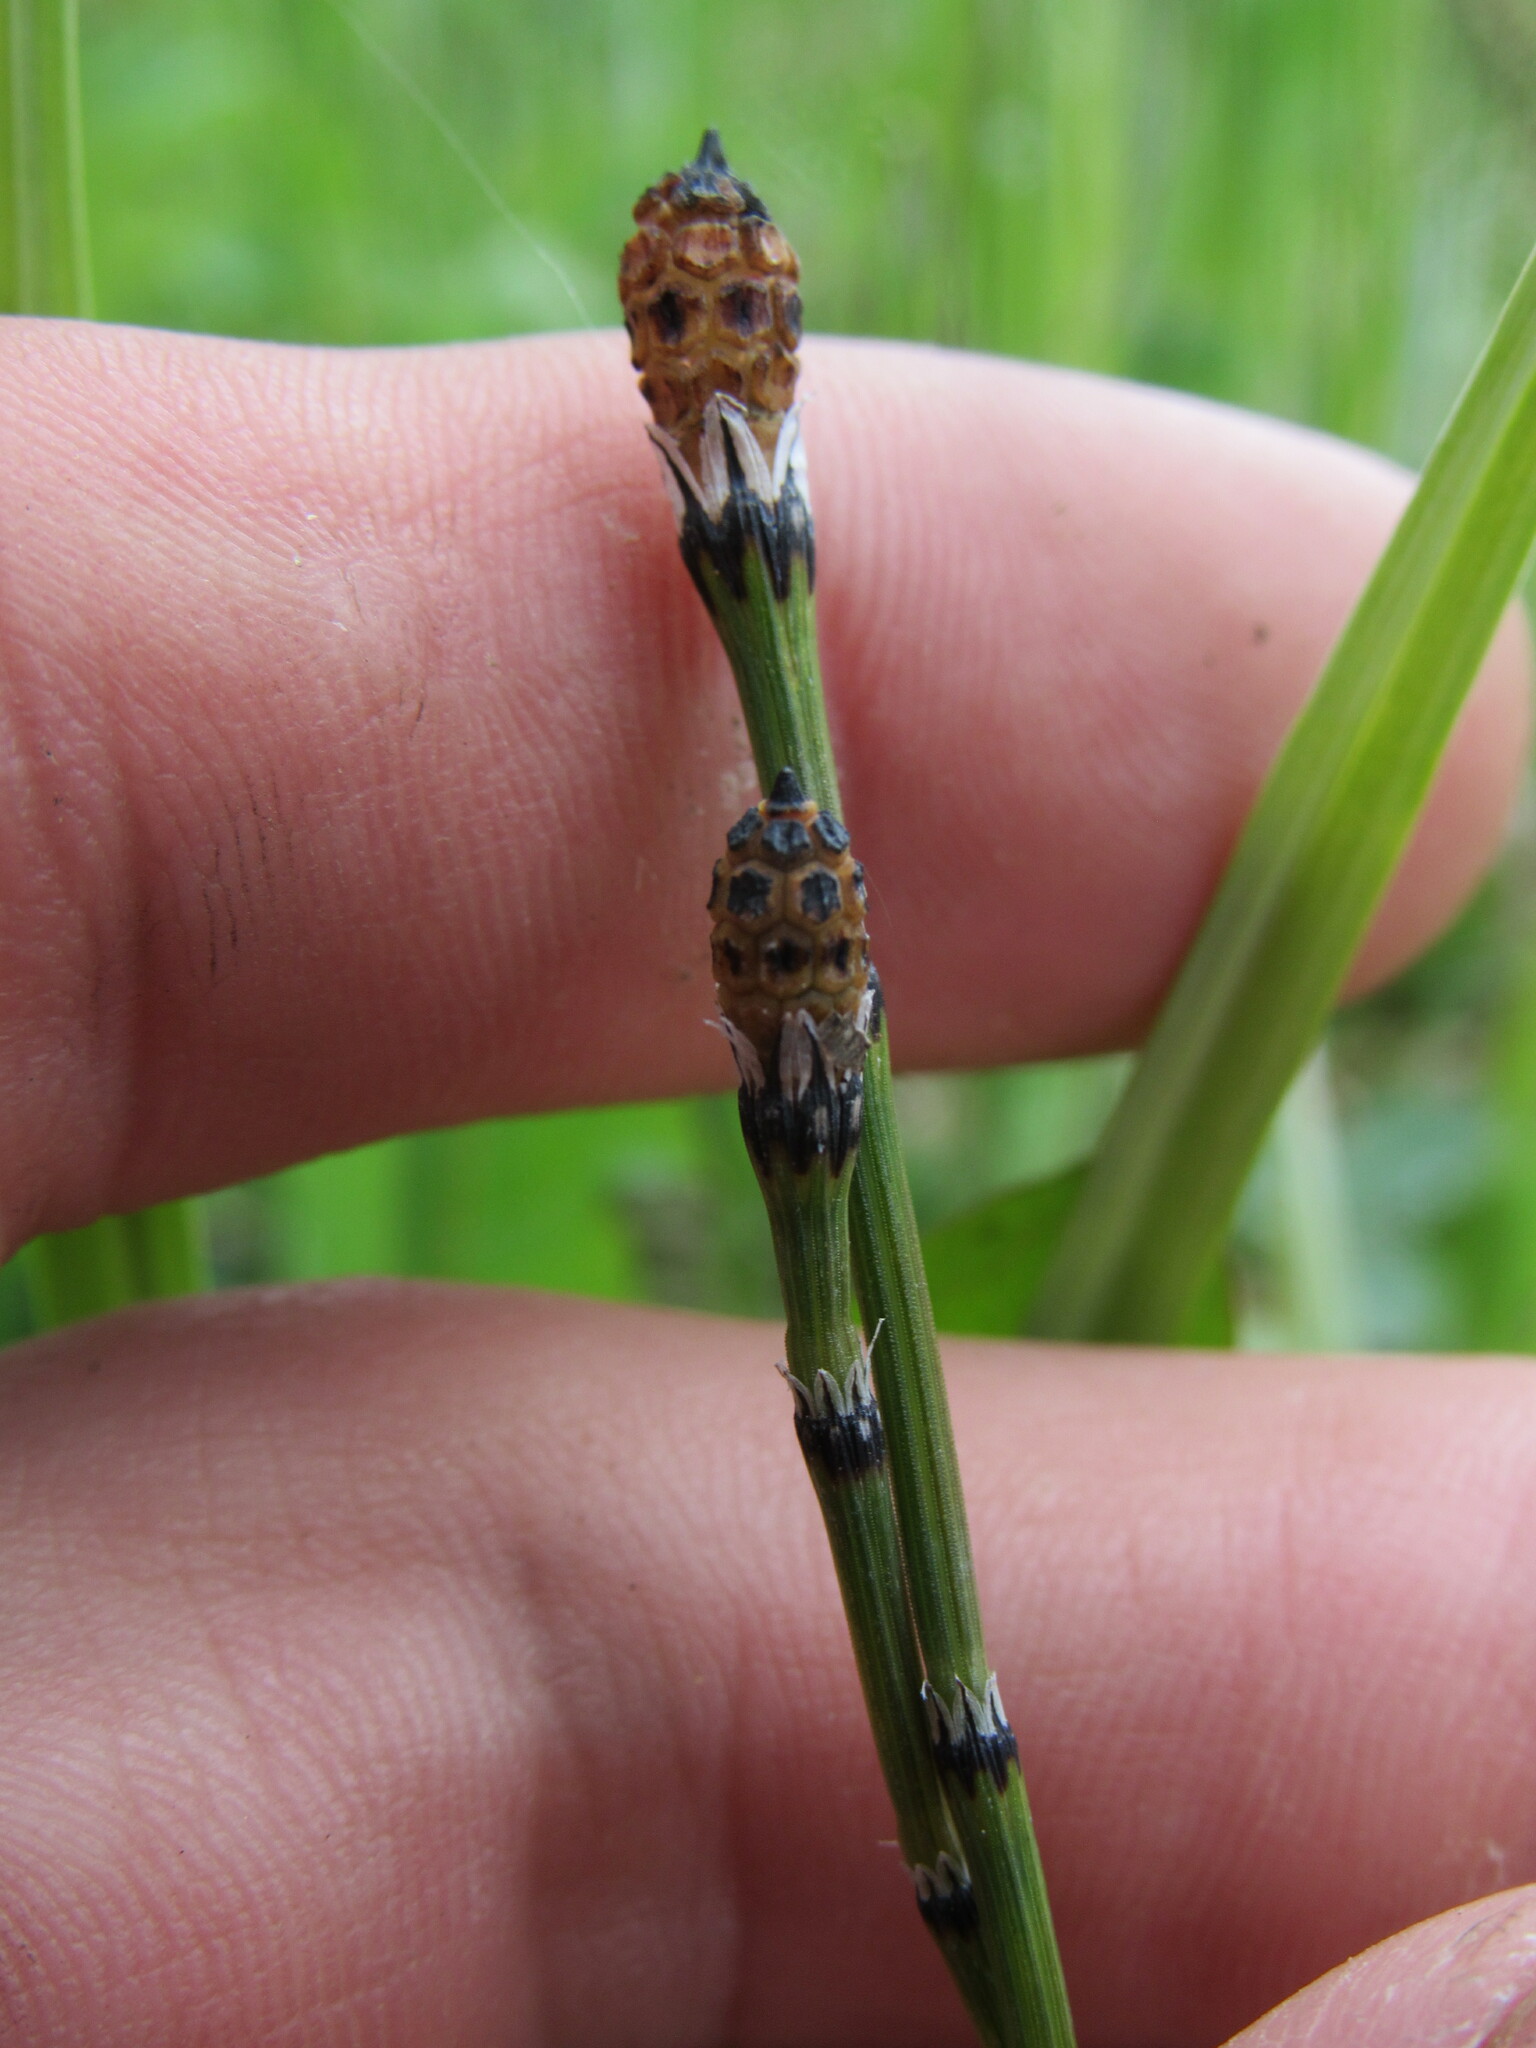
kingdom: Plantae
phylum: Tracheophyta
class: Polypodiopsida
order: Equisetales
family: Equisetaceae
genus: Equisetum
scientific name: Equisetum variegatum
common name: Variegated horsetail
